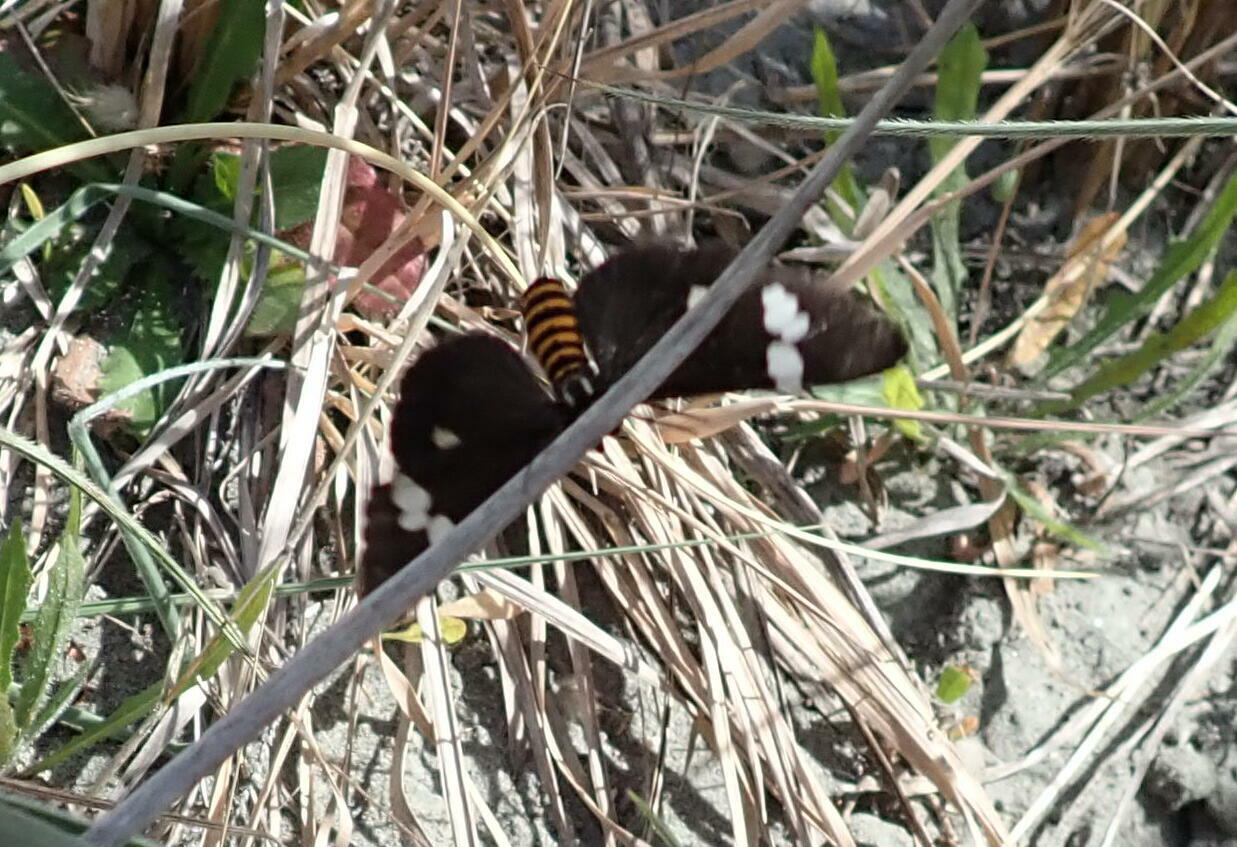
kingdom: Animalia
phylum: Arthropoda
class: Insecta
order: Lepidoptera
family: Erebidae
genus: Nyctemera
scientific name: Nyctemera annulatum
